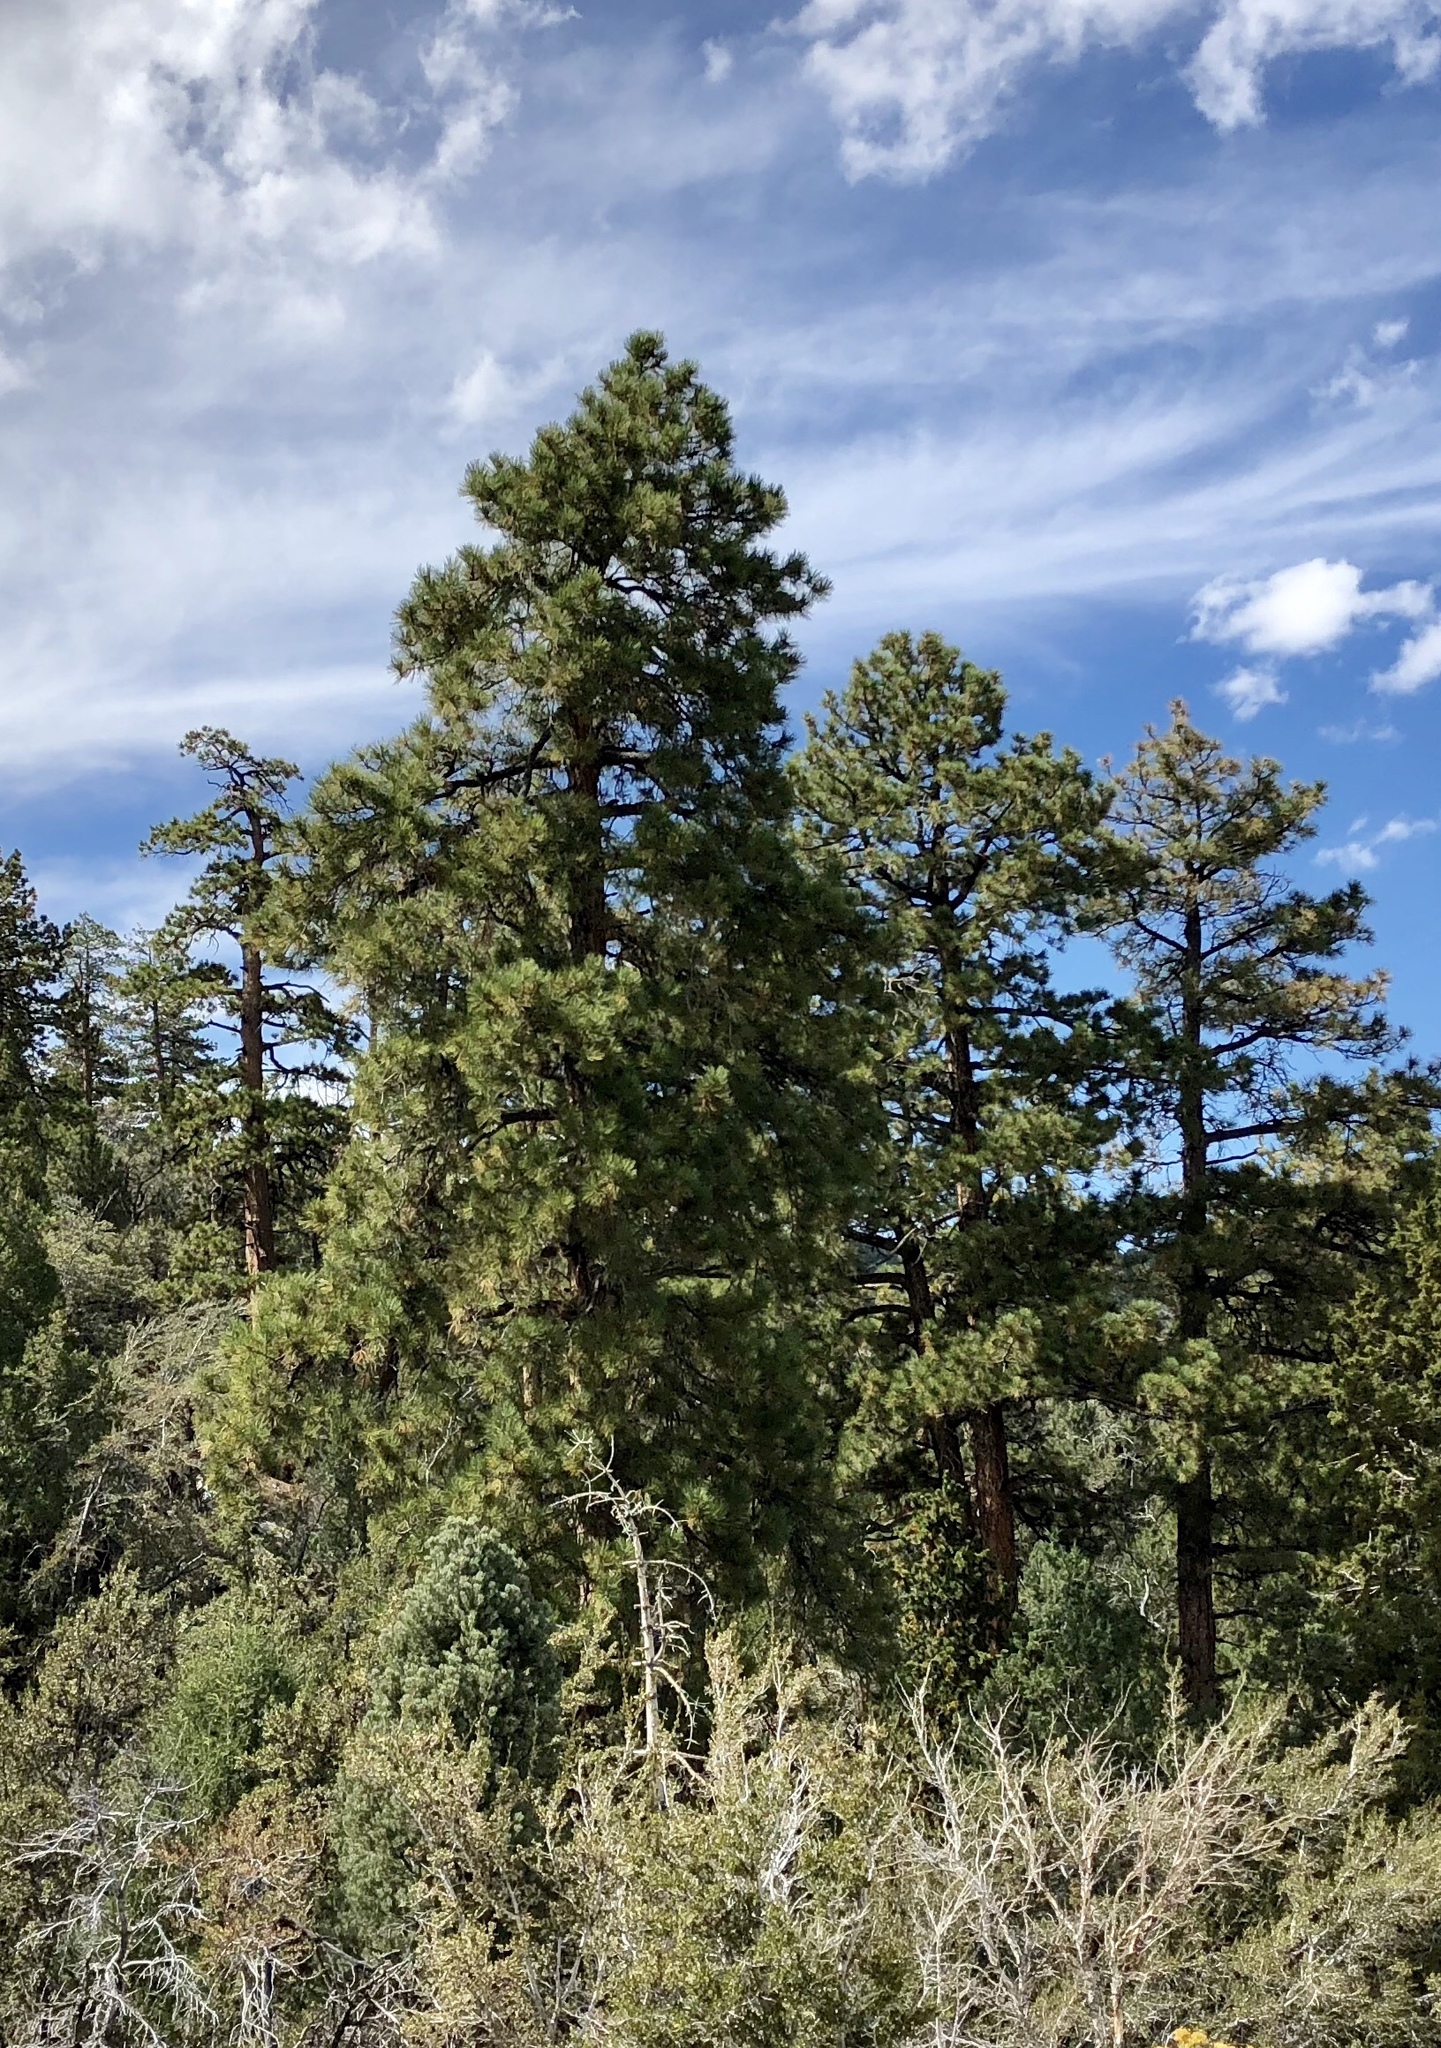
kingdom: Plantae
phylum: Tracheophyta
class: Pinopsida
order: Pinales
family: Pinaceae
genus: Pinus
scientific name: Pinus ponderosa
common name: Western yellow-pine
